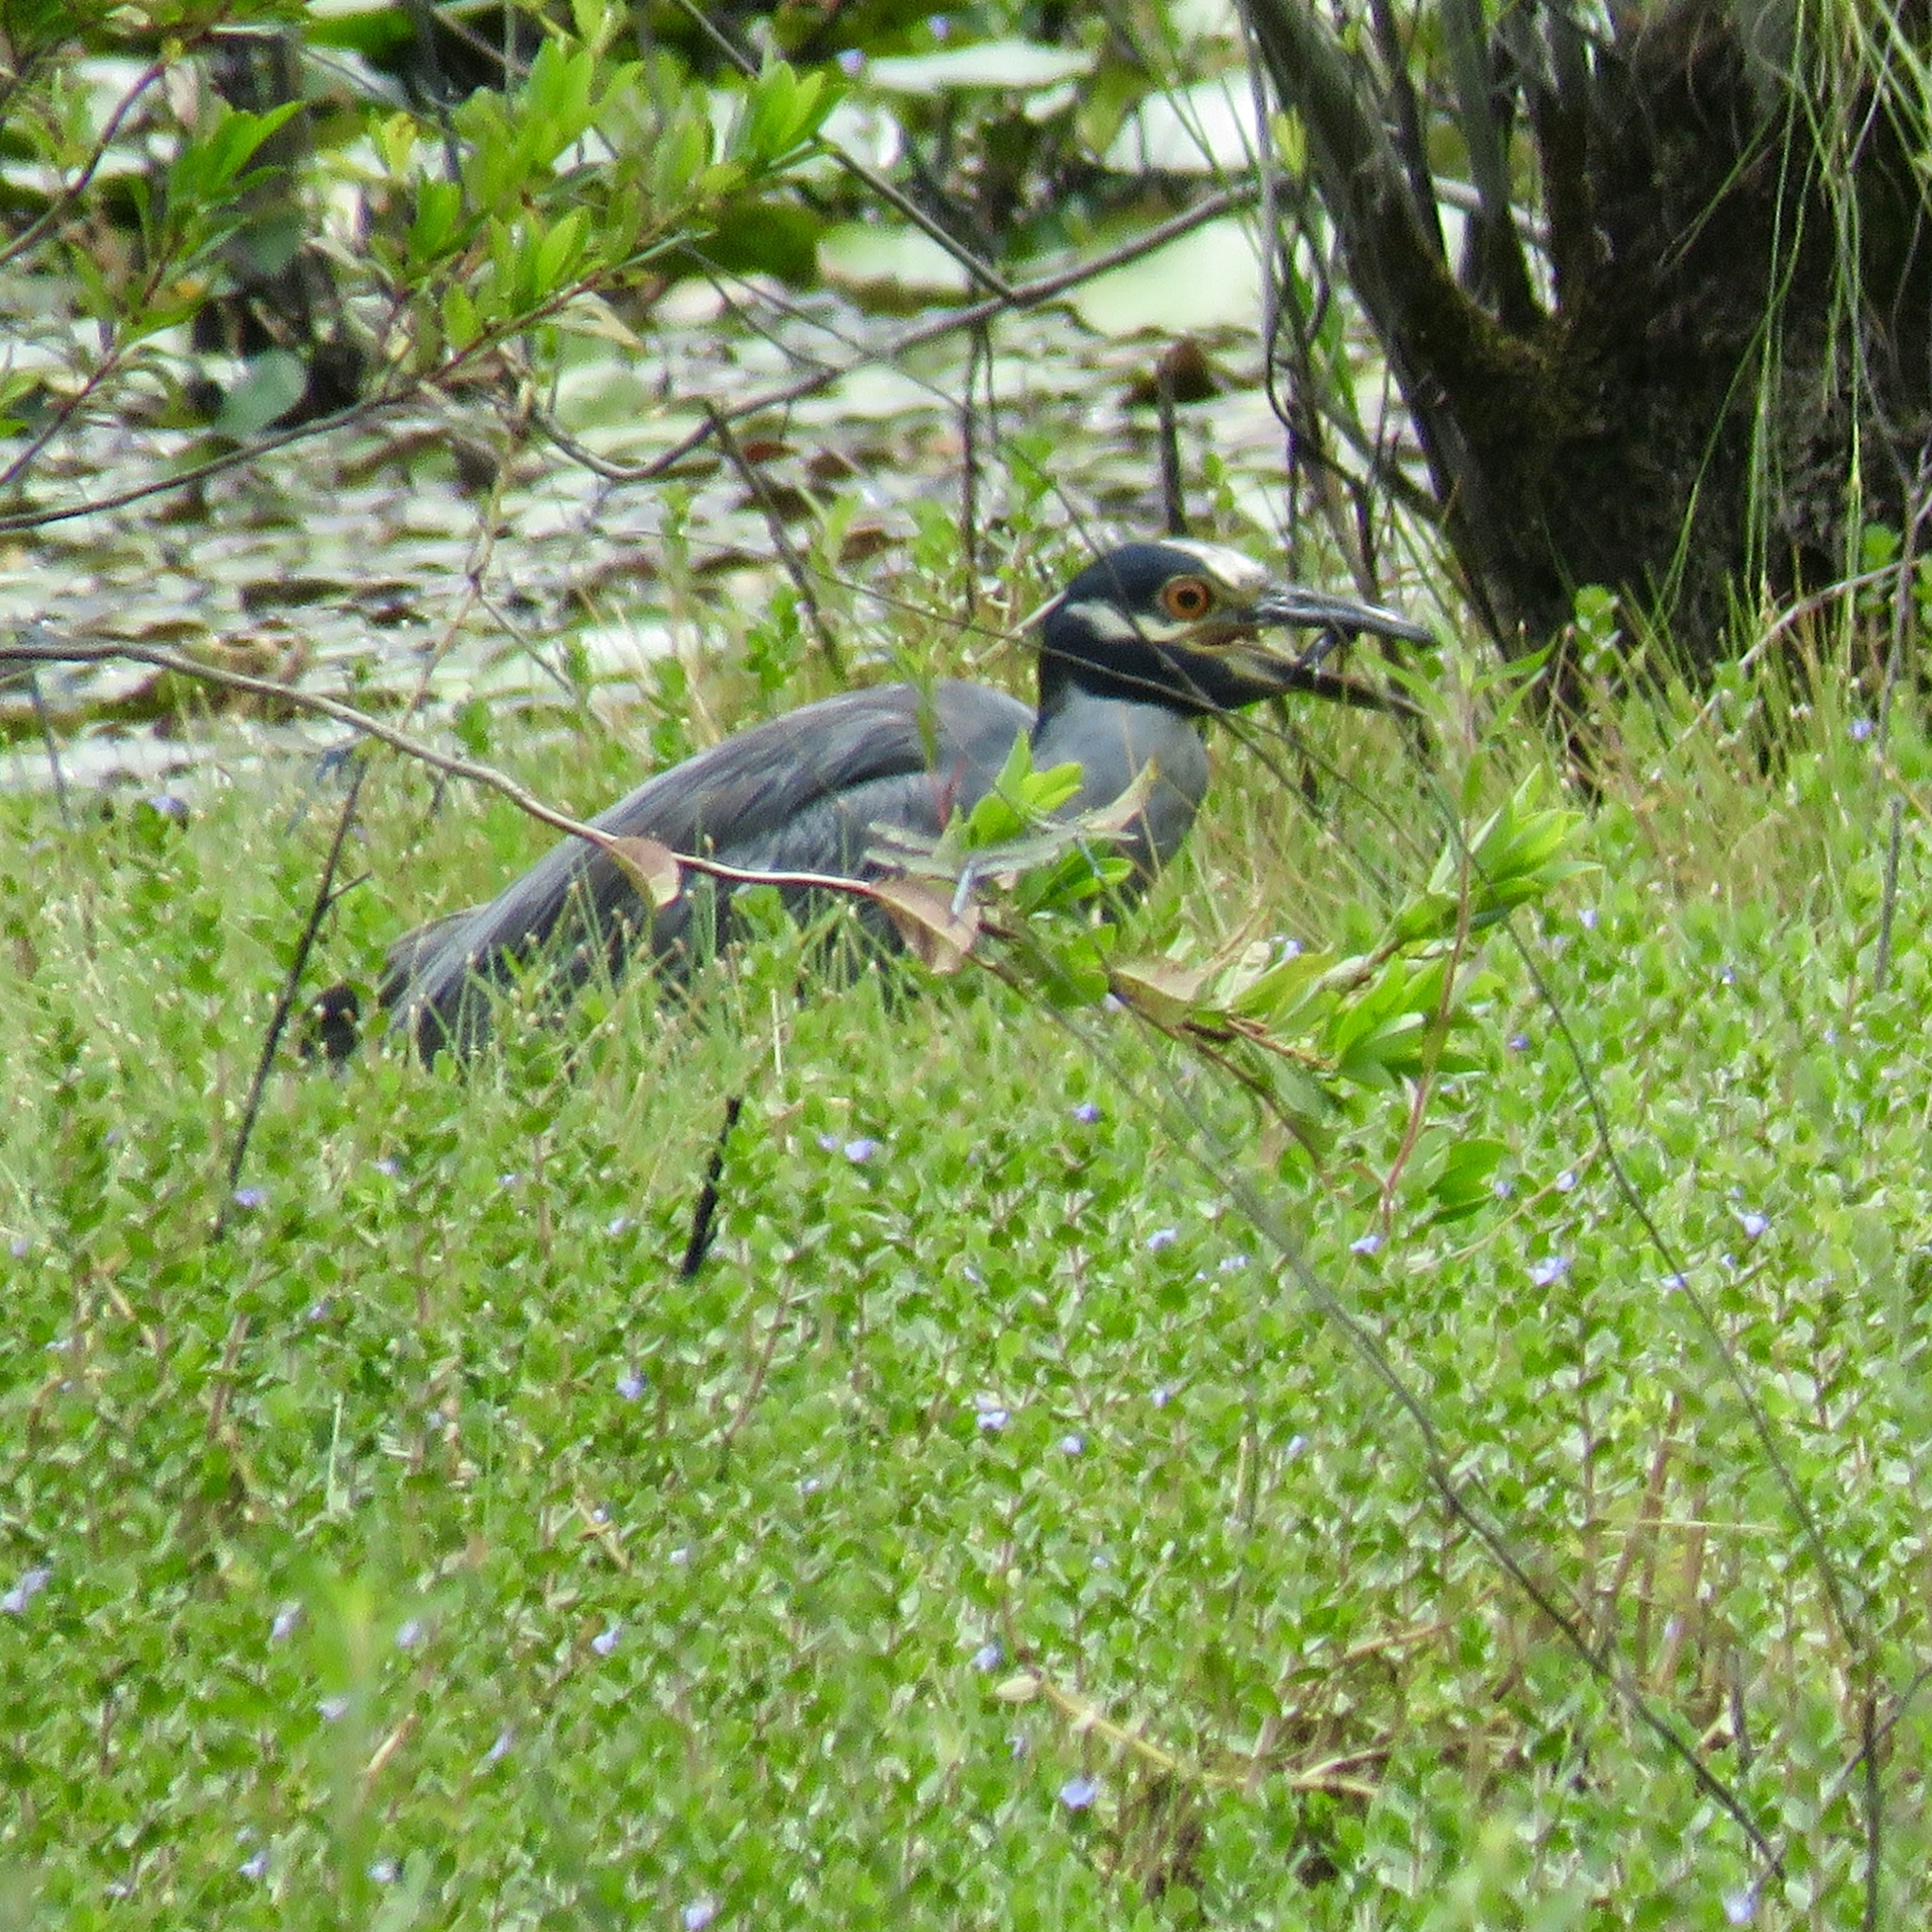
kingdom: Animalia
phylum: Chordata
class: Aves
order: Pelecaniformes
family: Ardeidae
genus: Nyctanassa
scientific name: Nyctanassa violacea
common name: Yellow-crowned night heron
